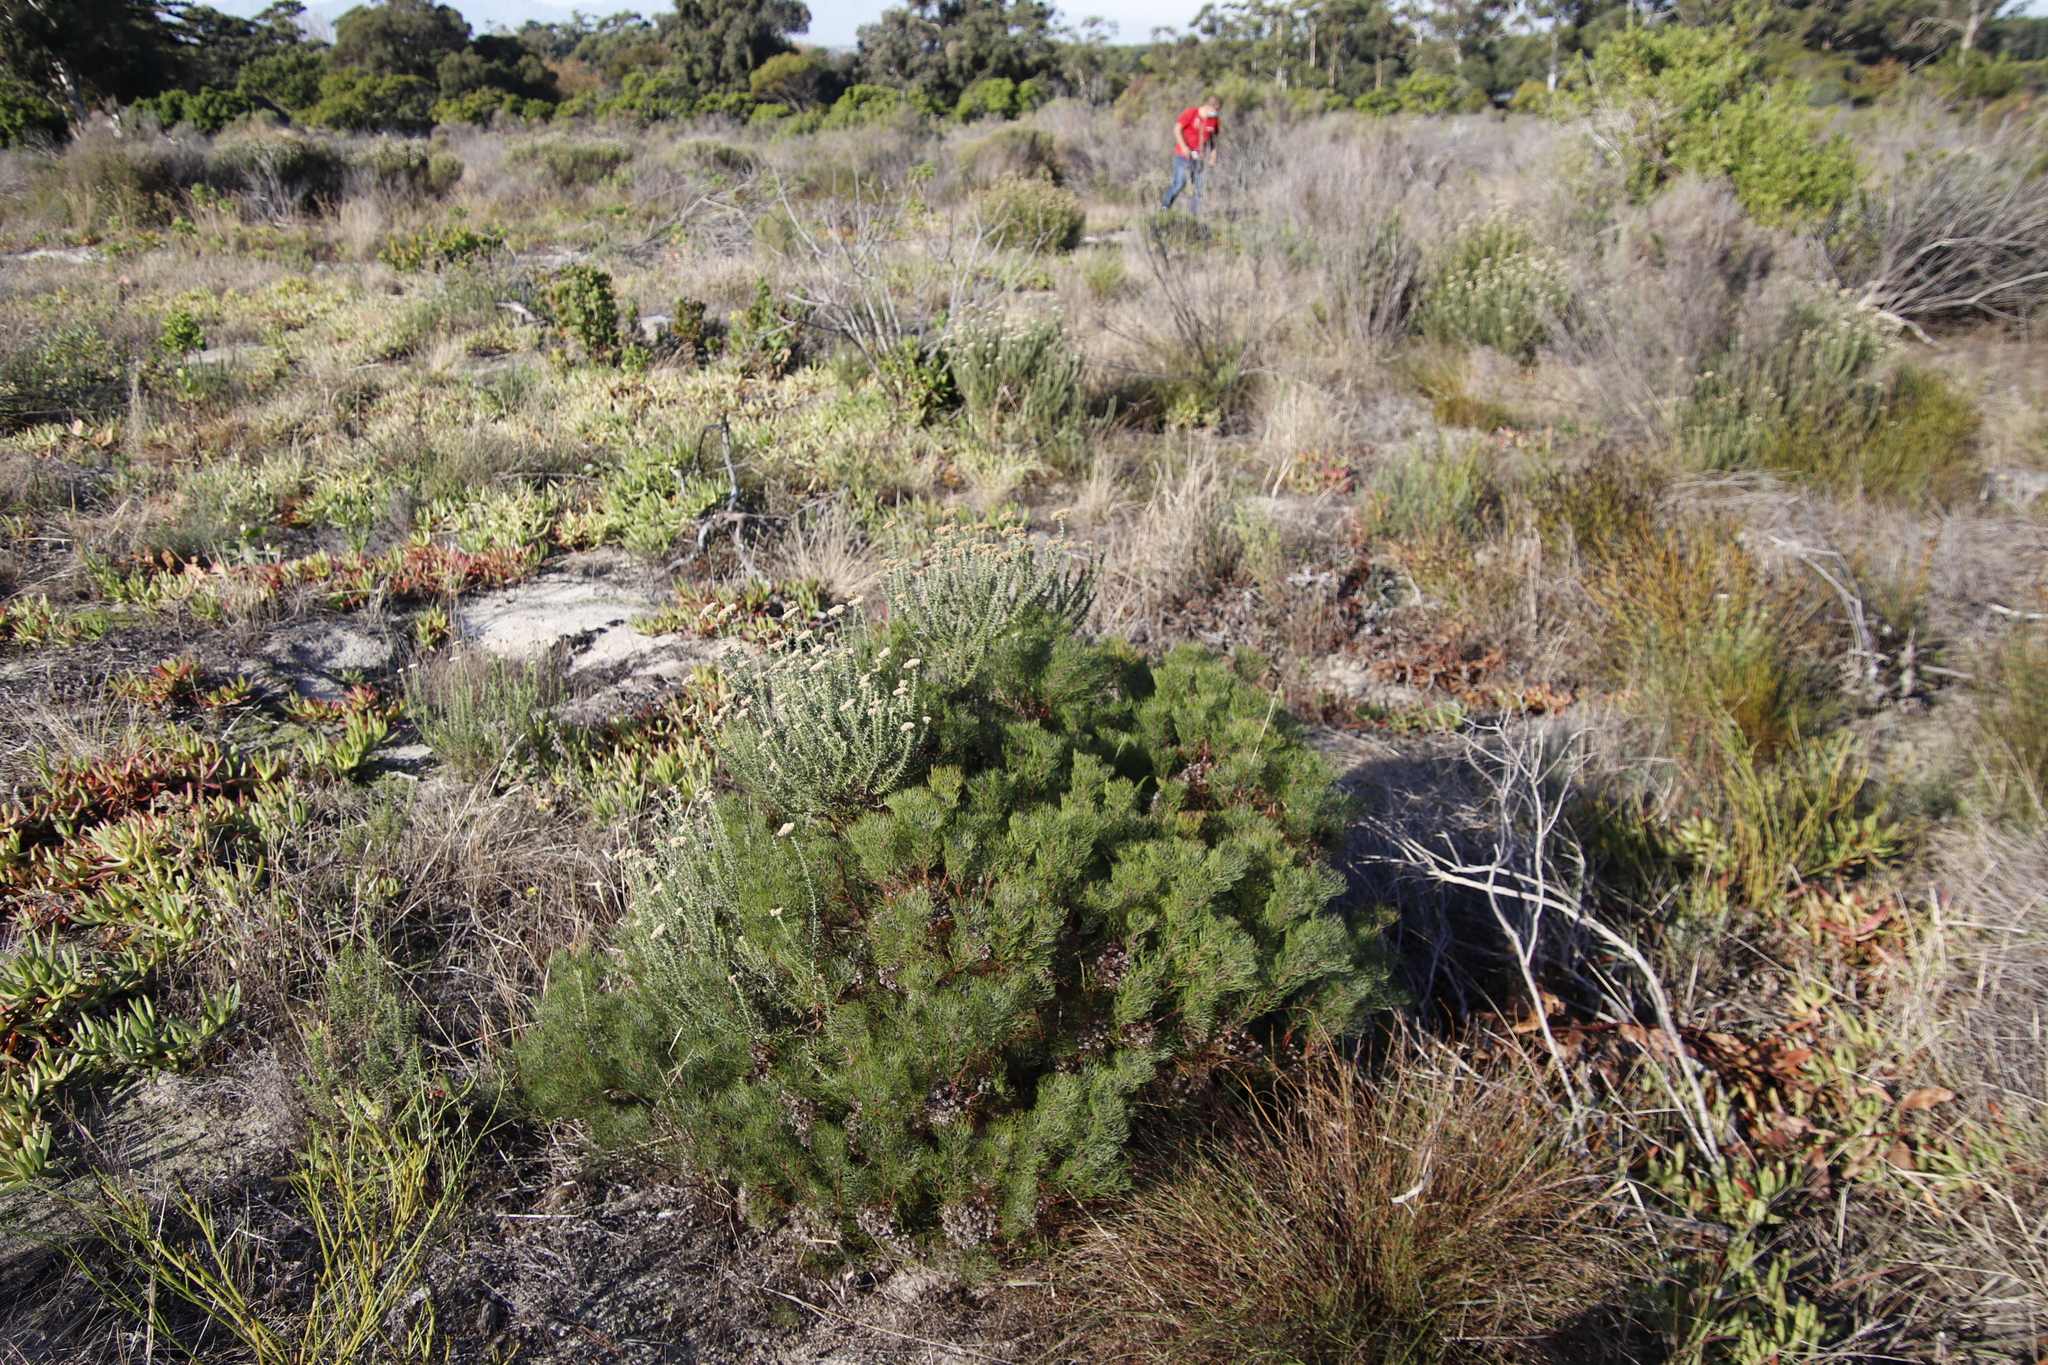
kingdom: Plantae
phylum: Tracheophyta
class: Magnoliopsida
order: Proteales
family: Proteaceae
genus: Serruria
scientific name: Serruria fasciflora
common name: Common pin spiderhead
